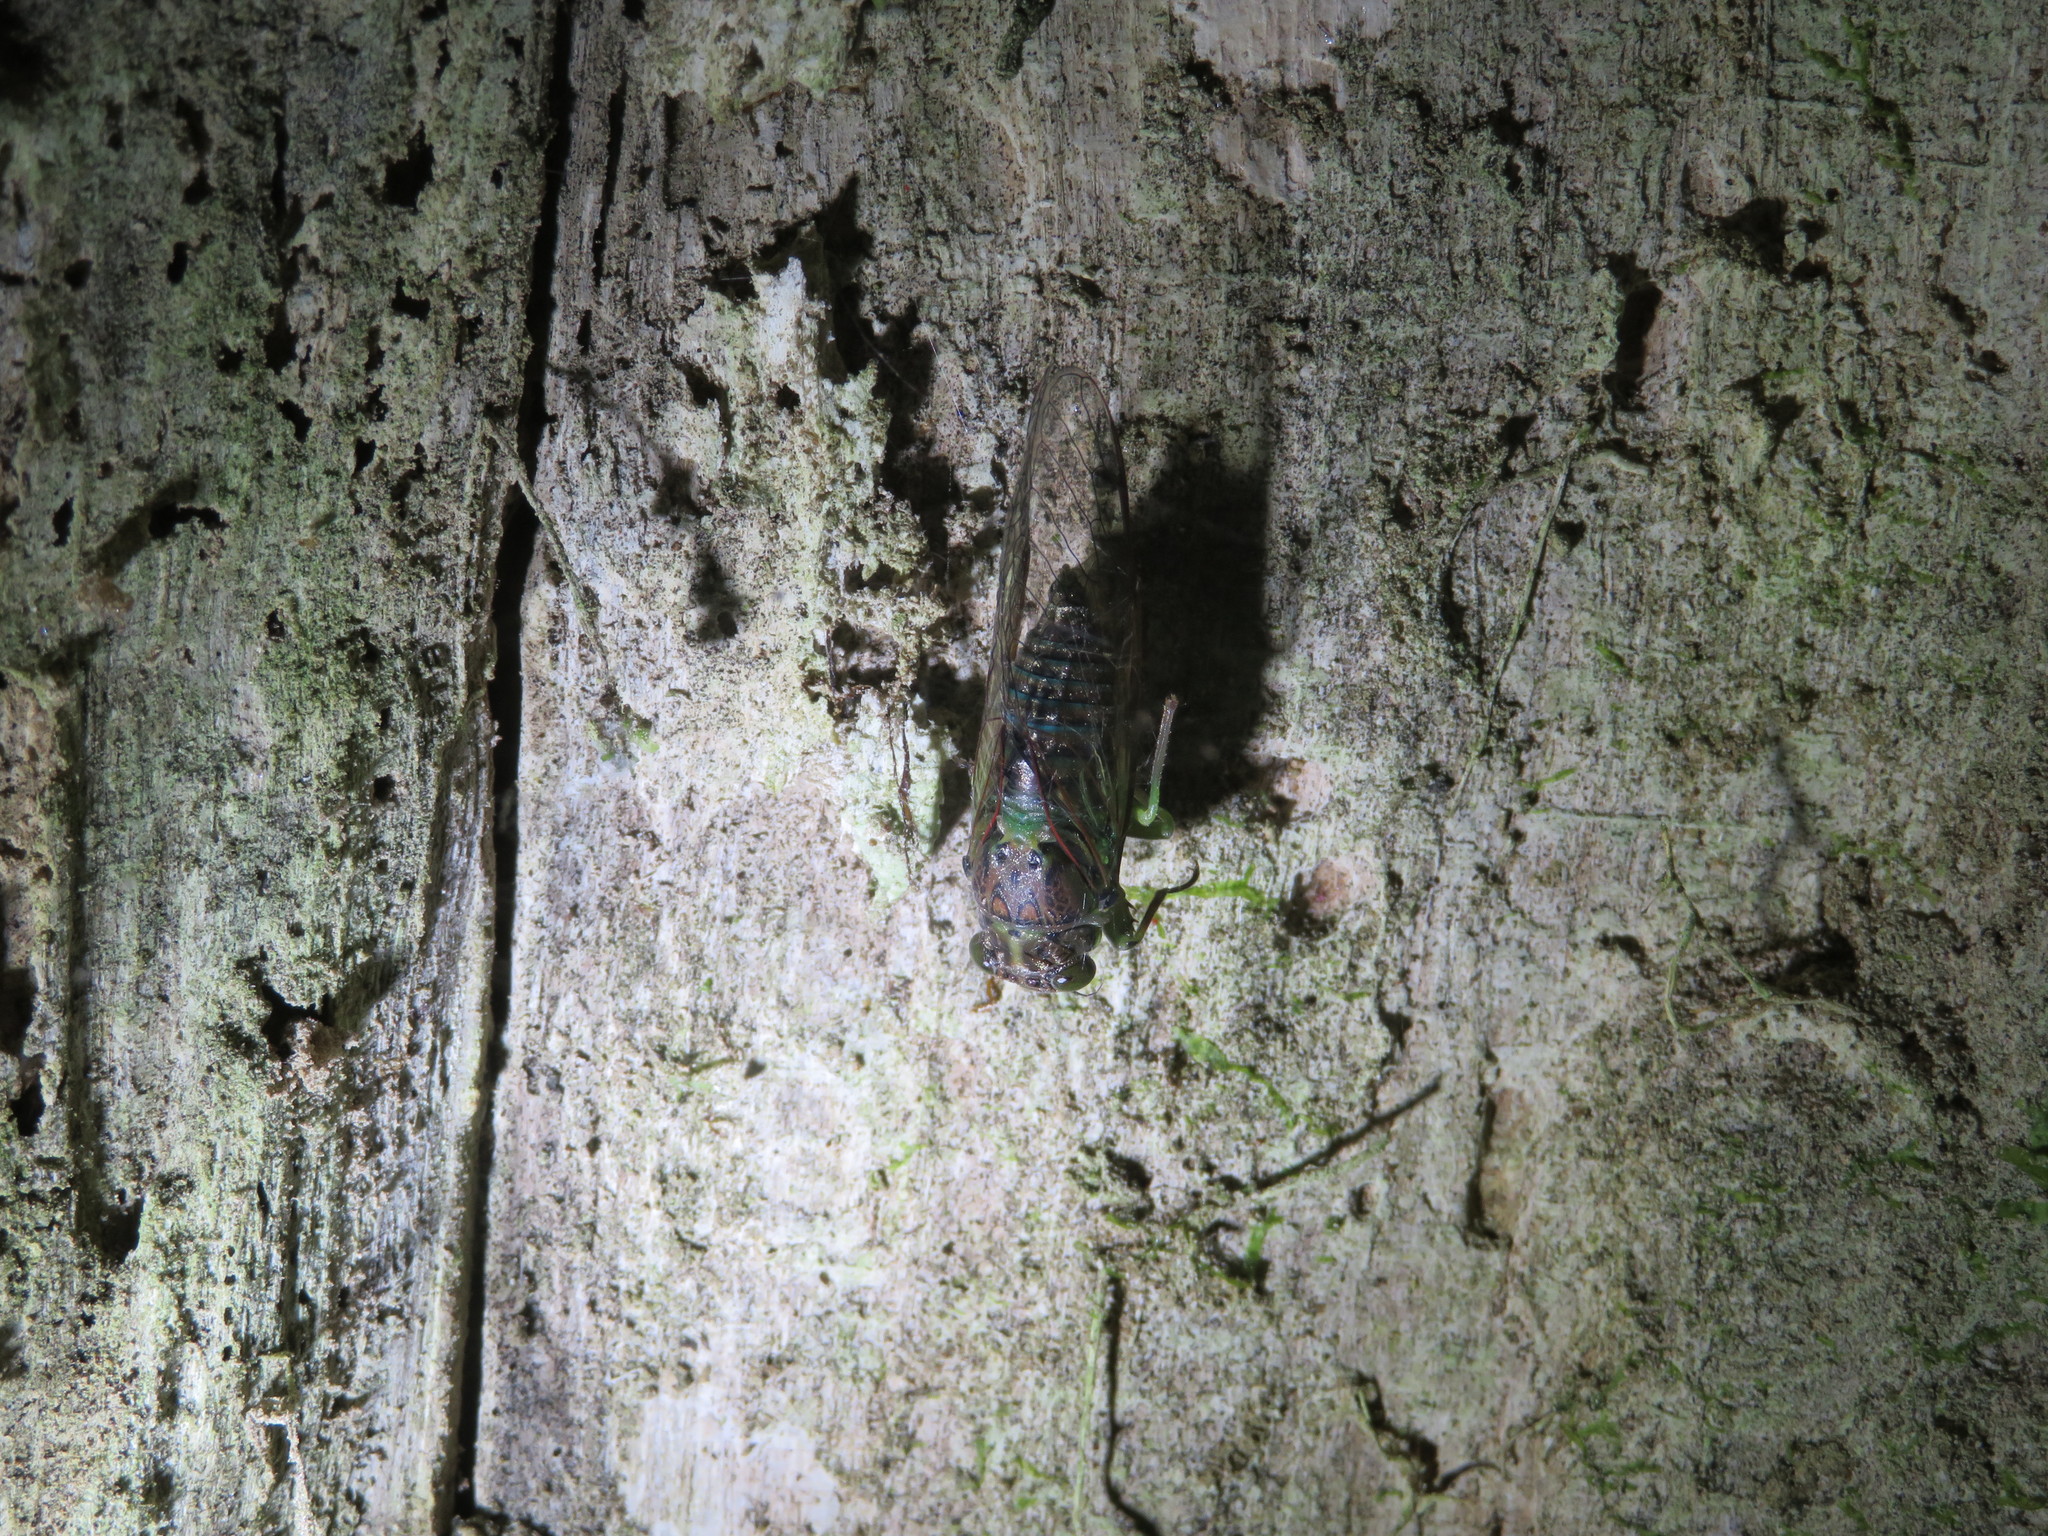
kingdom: Animalia
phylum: Arthropoda
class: Insecta
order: Hemiptera
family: Cicadidae
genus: Kikihia
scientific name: Kikihia scutellaris
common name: Lesser bronze cicada
